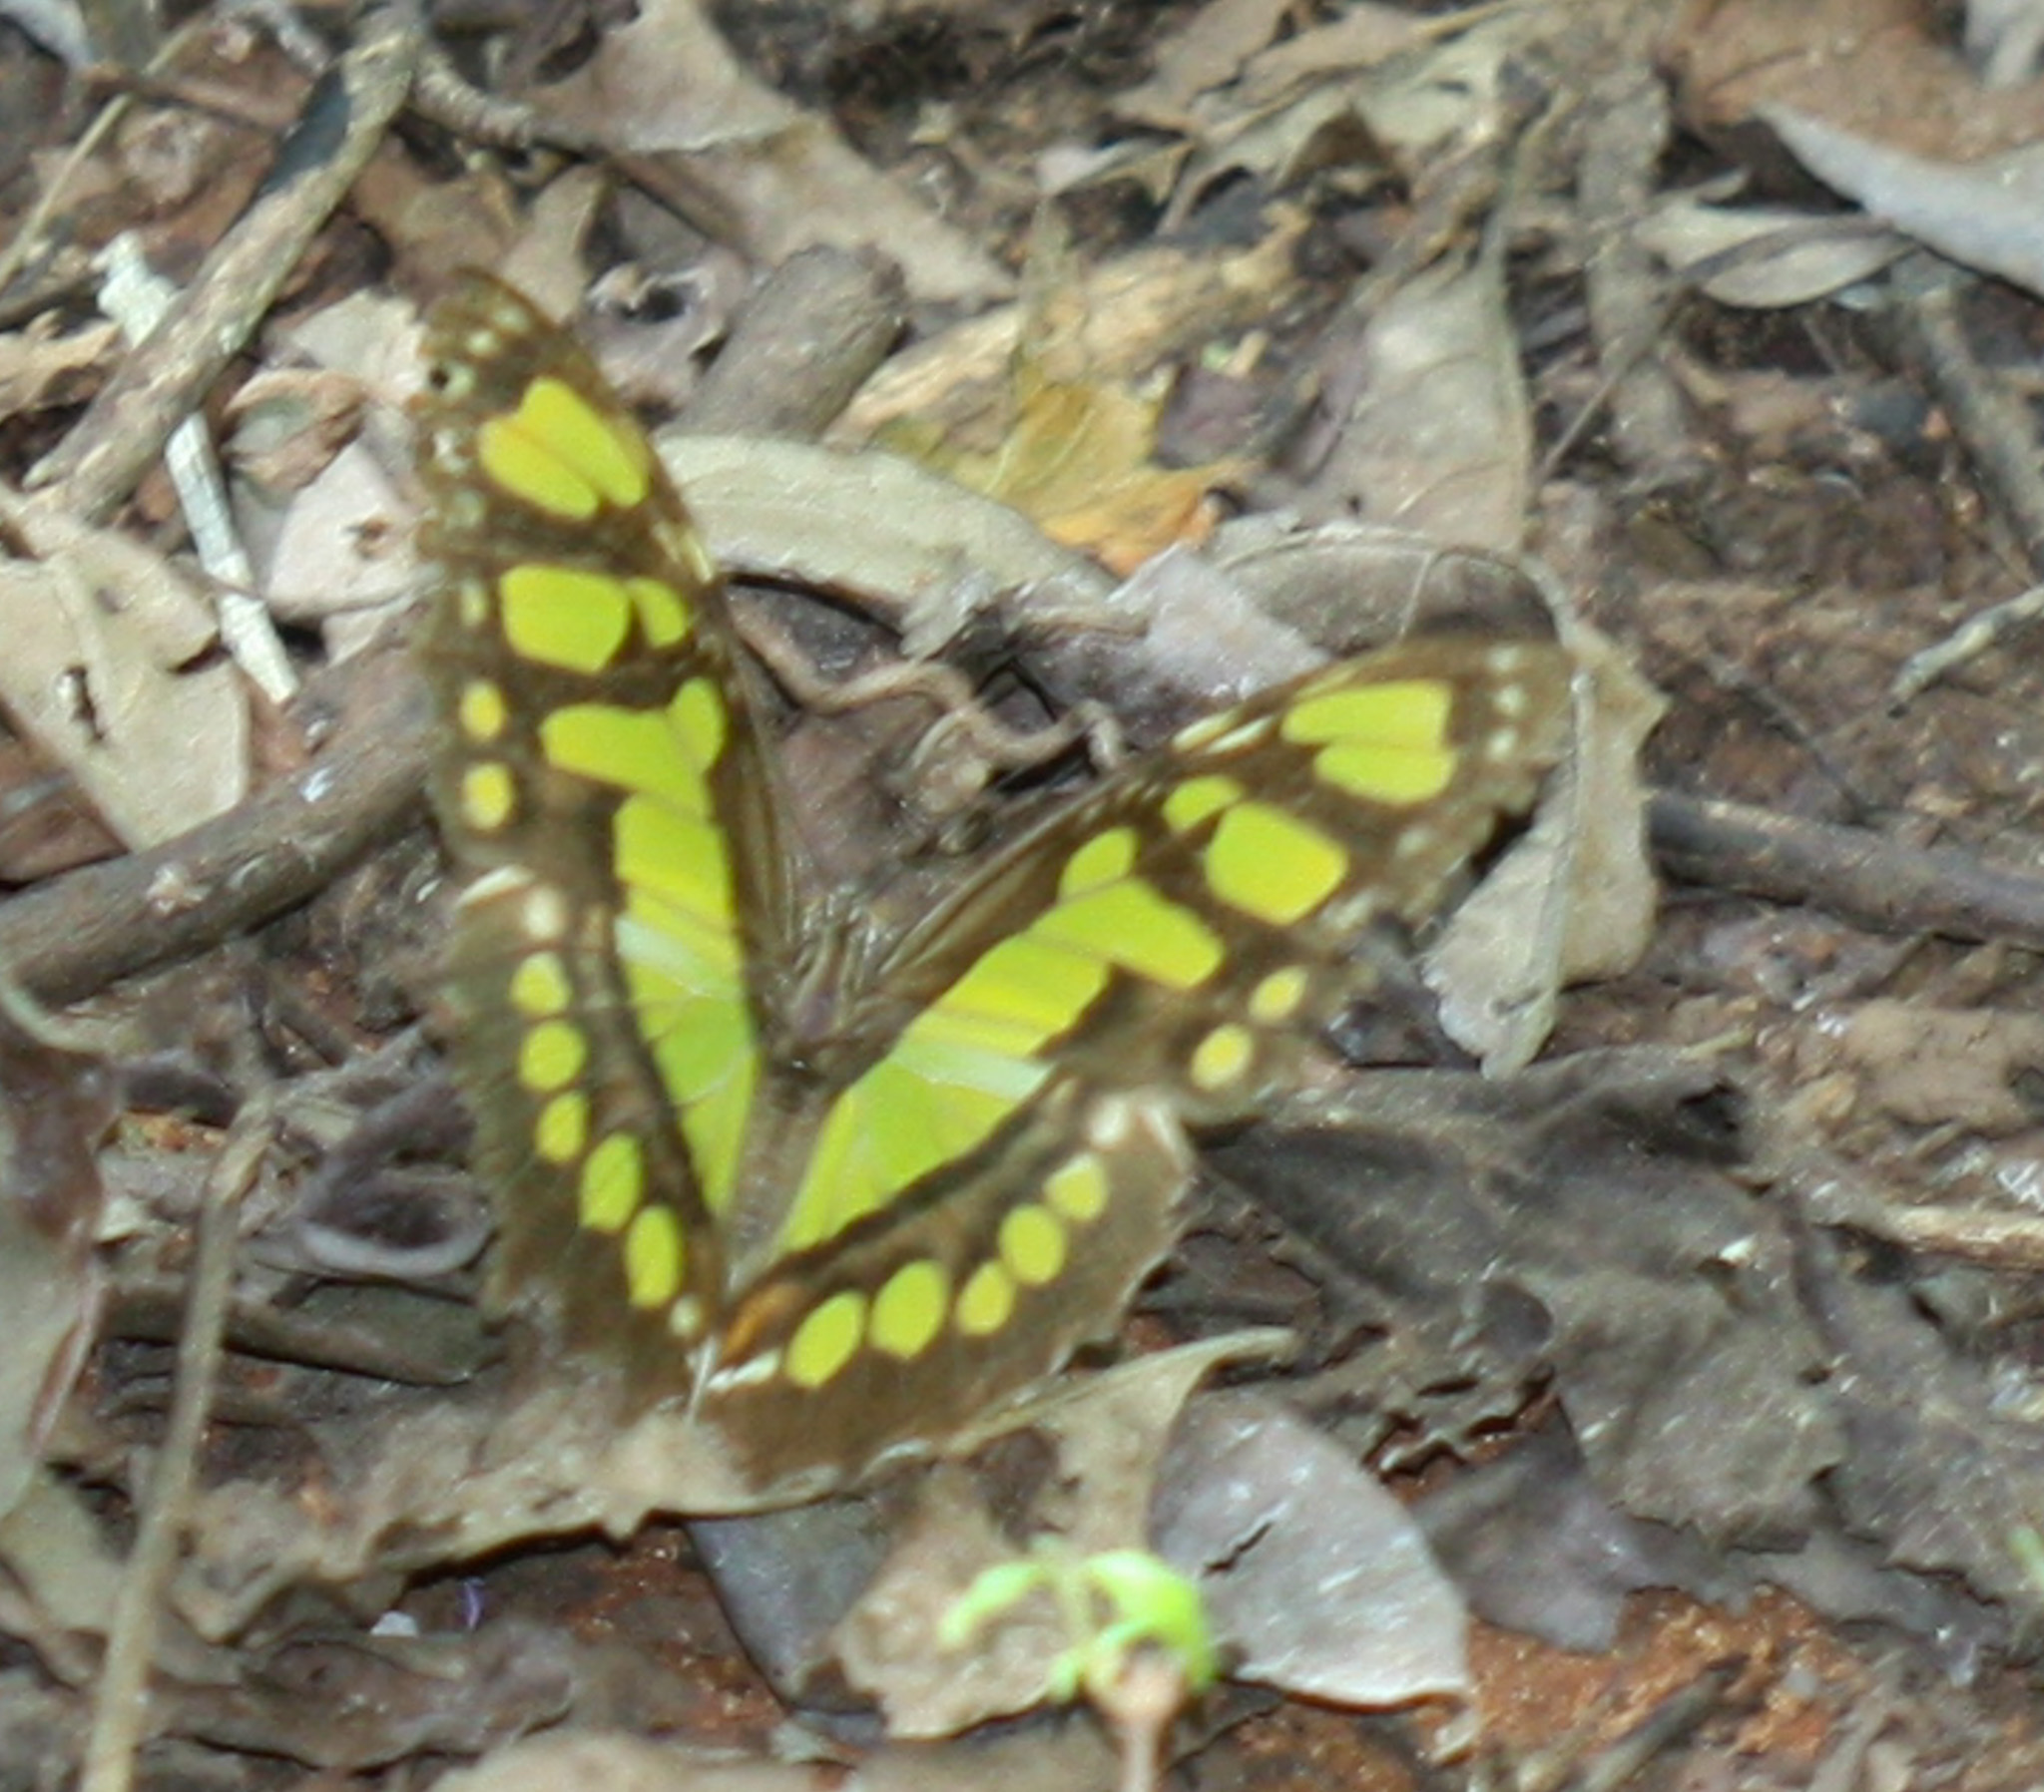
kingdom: Animalia
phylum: Arthropoda
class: Insecta
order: Lepidoptera
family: Nymphalidae
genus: Siproeta
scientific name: Siproeta stelenes
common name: Malachite
